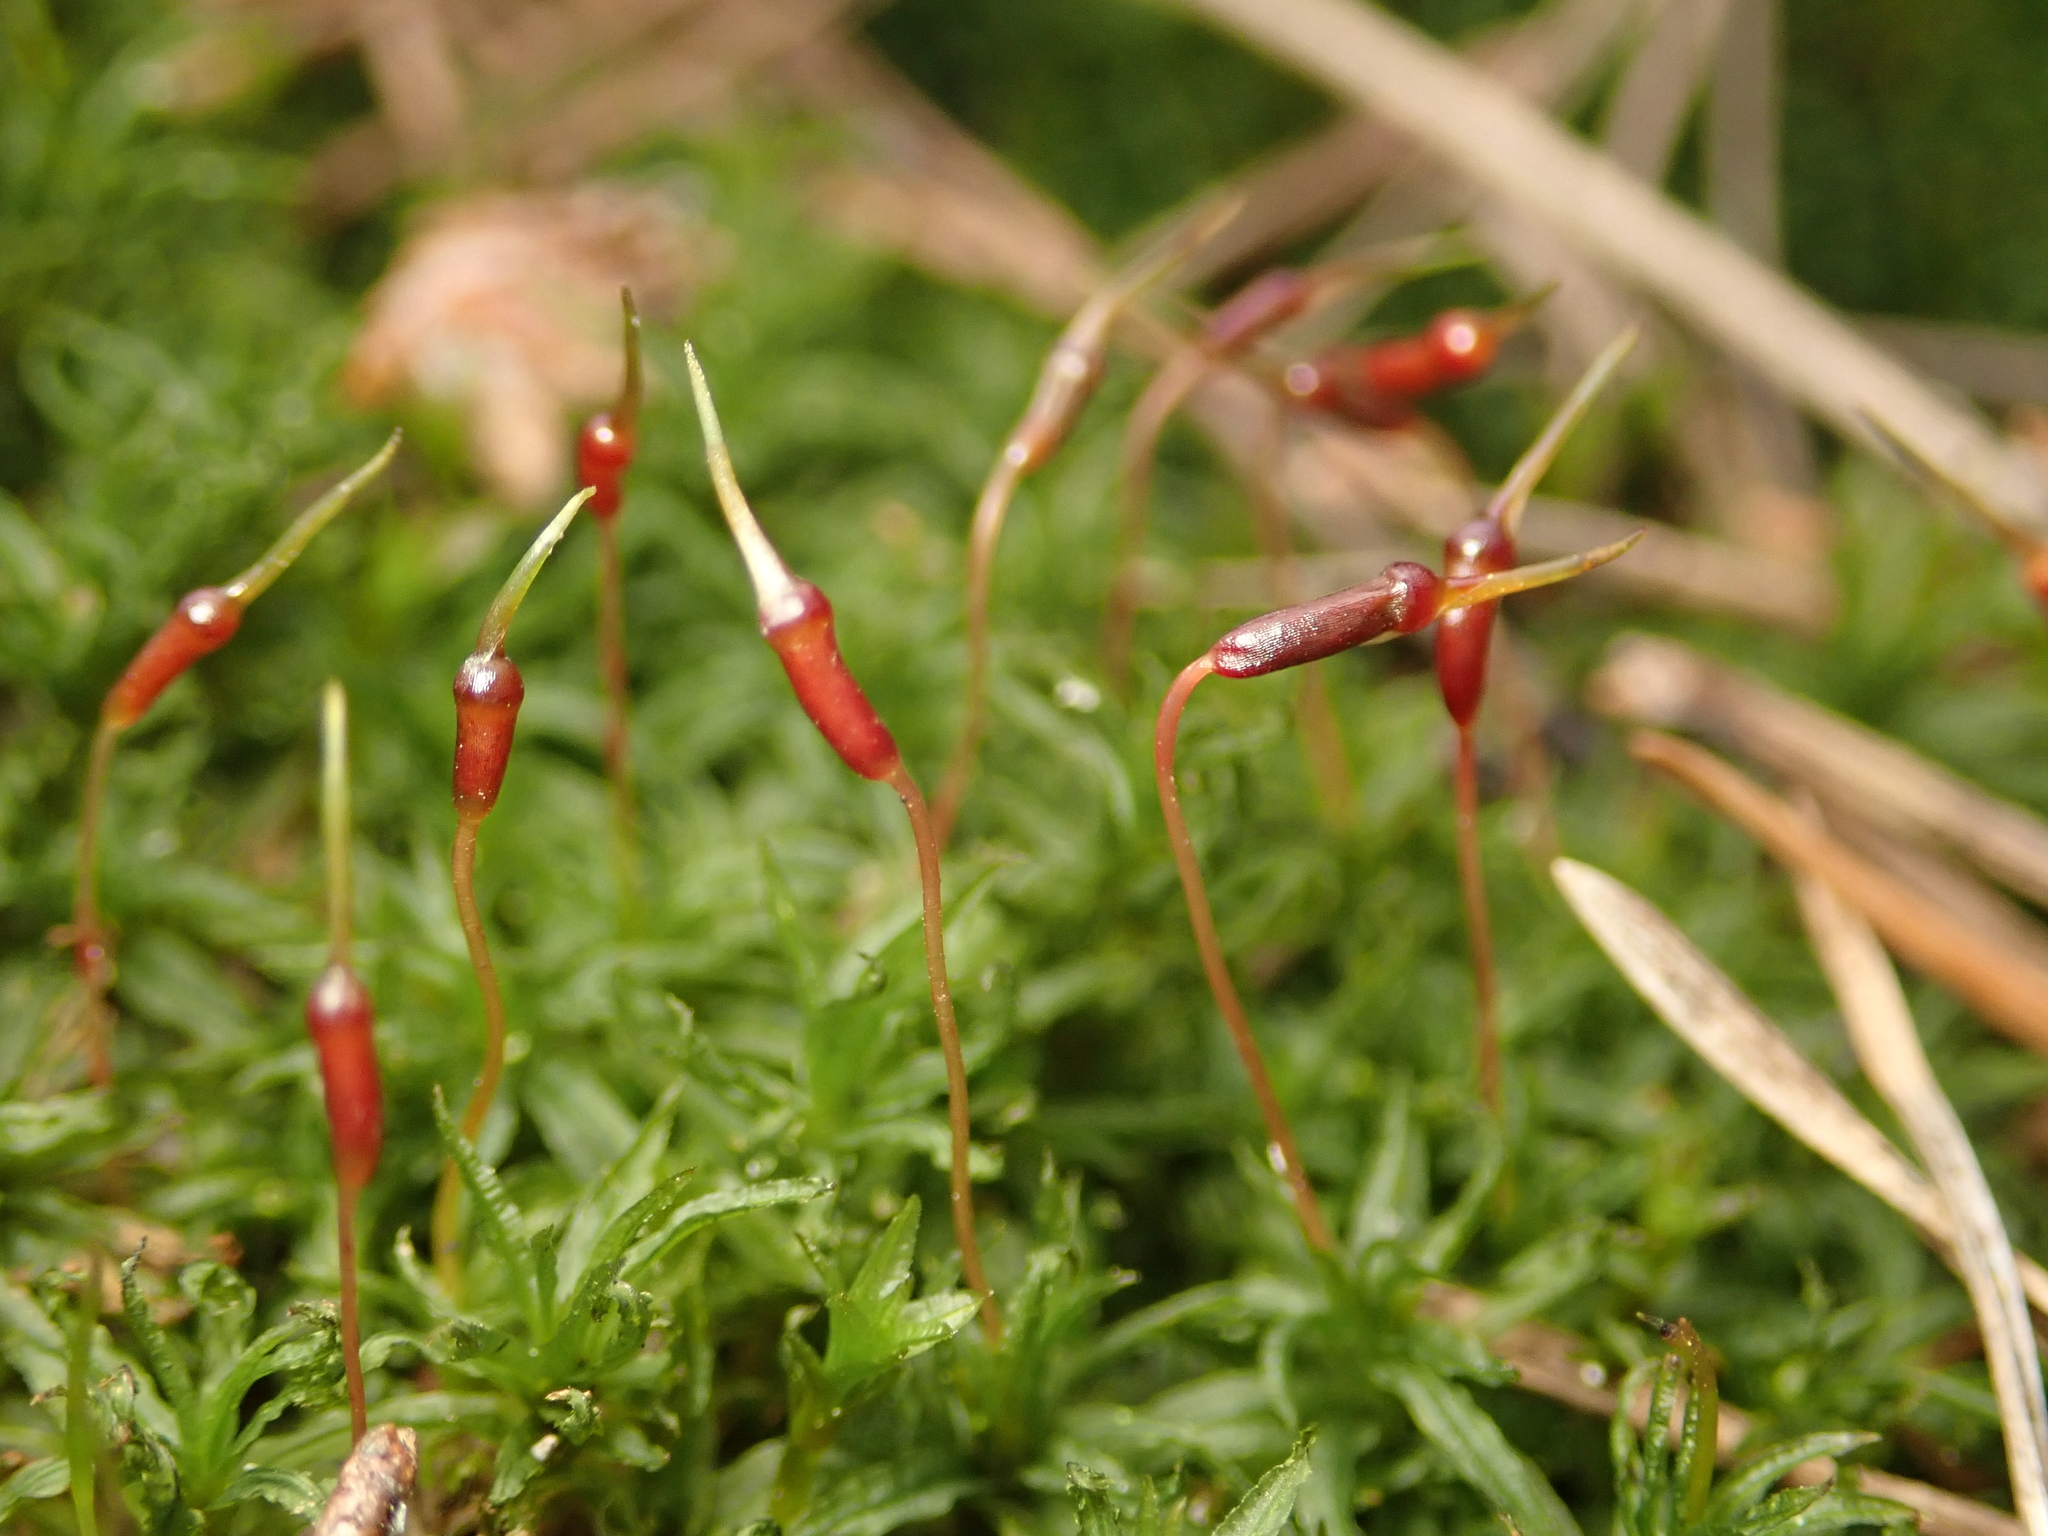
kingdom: Plantae
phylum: Bryophyta
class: Polytrichopsida
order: Polytrichales
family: Polytrichaceae
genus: Atrichum
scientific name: Atrichum undulatum
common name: Common smoothcap
